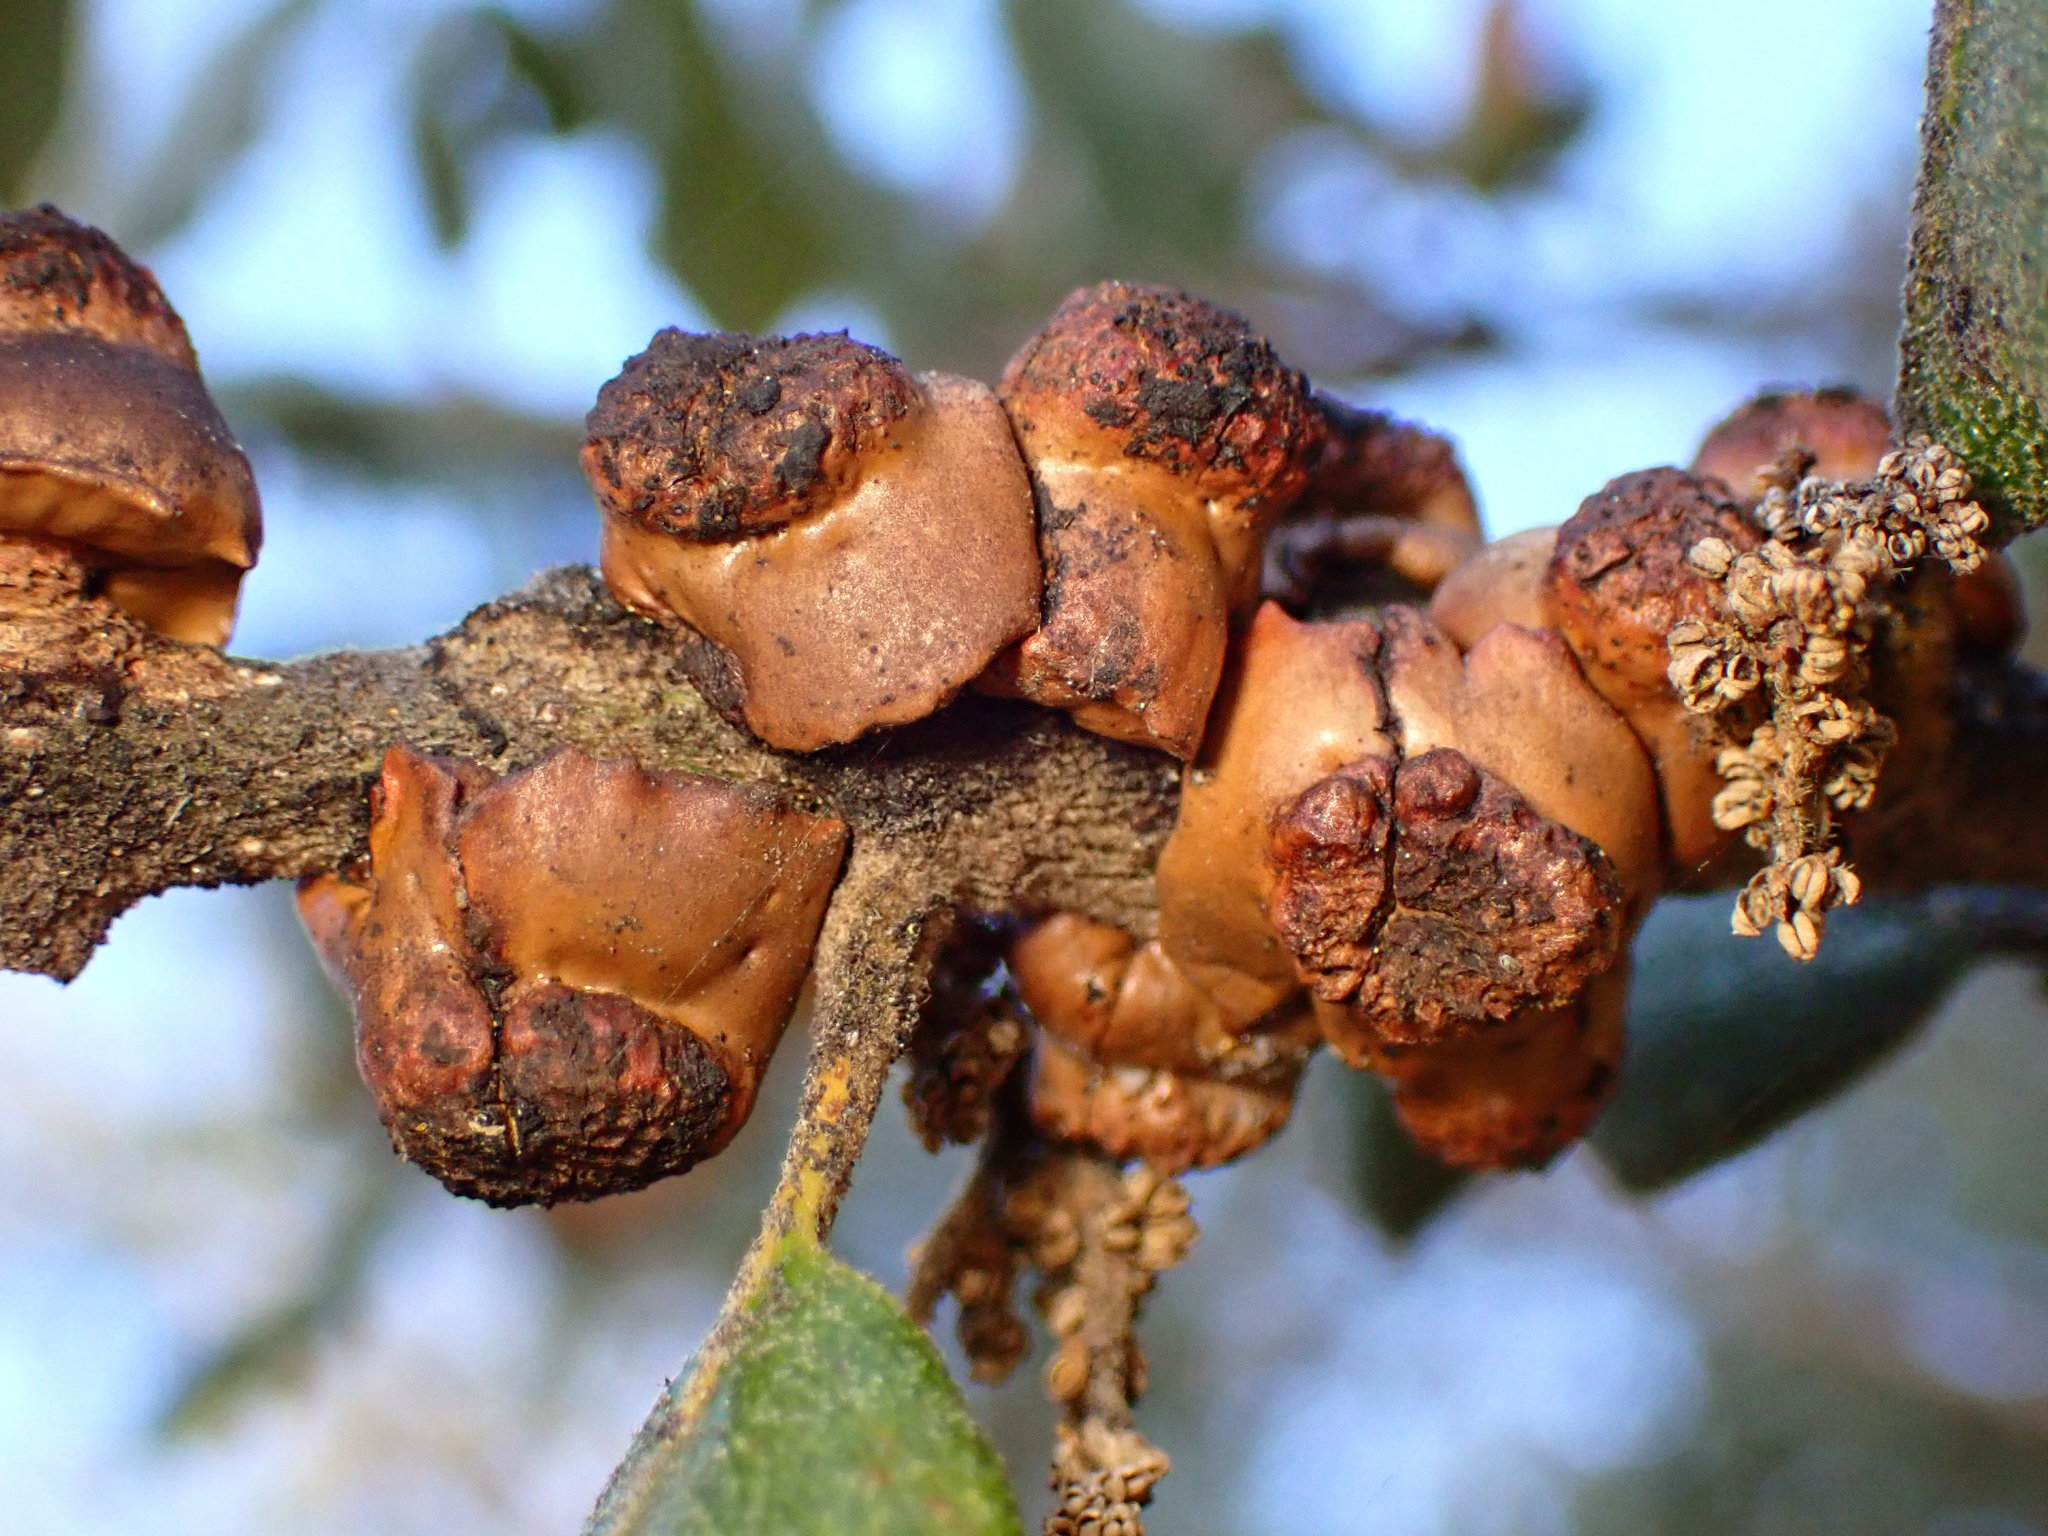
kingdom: Animalia
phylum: Arthropoda
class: Insecta
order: Hymenoptera
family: Cynipidae
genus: Disholcaspis
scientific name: Disholcaspis prehensa
